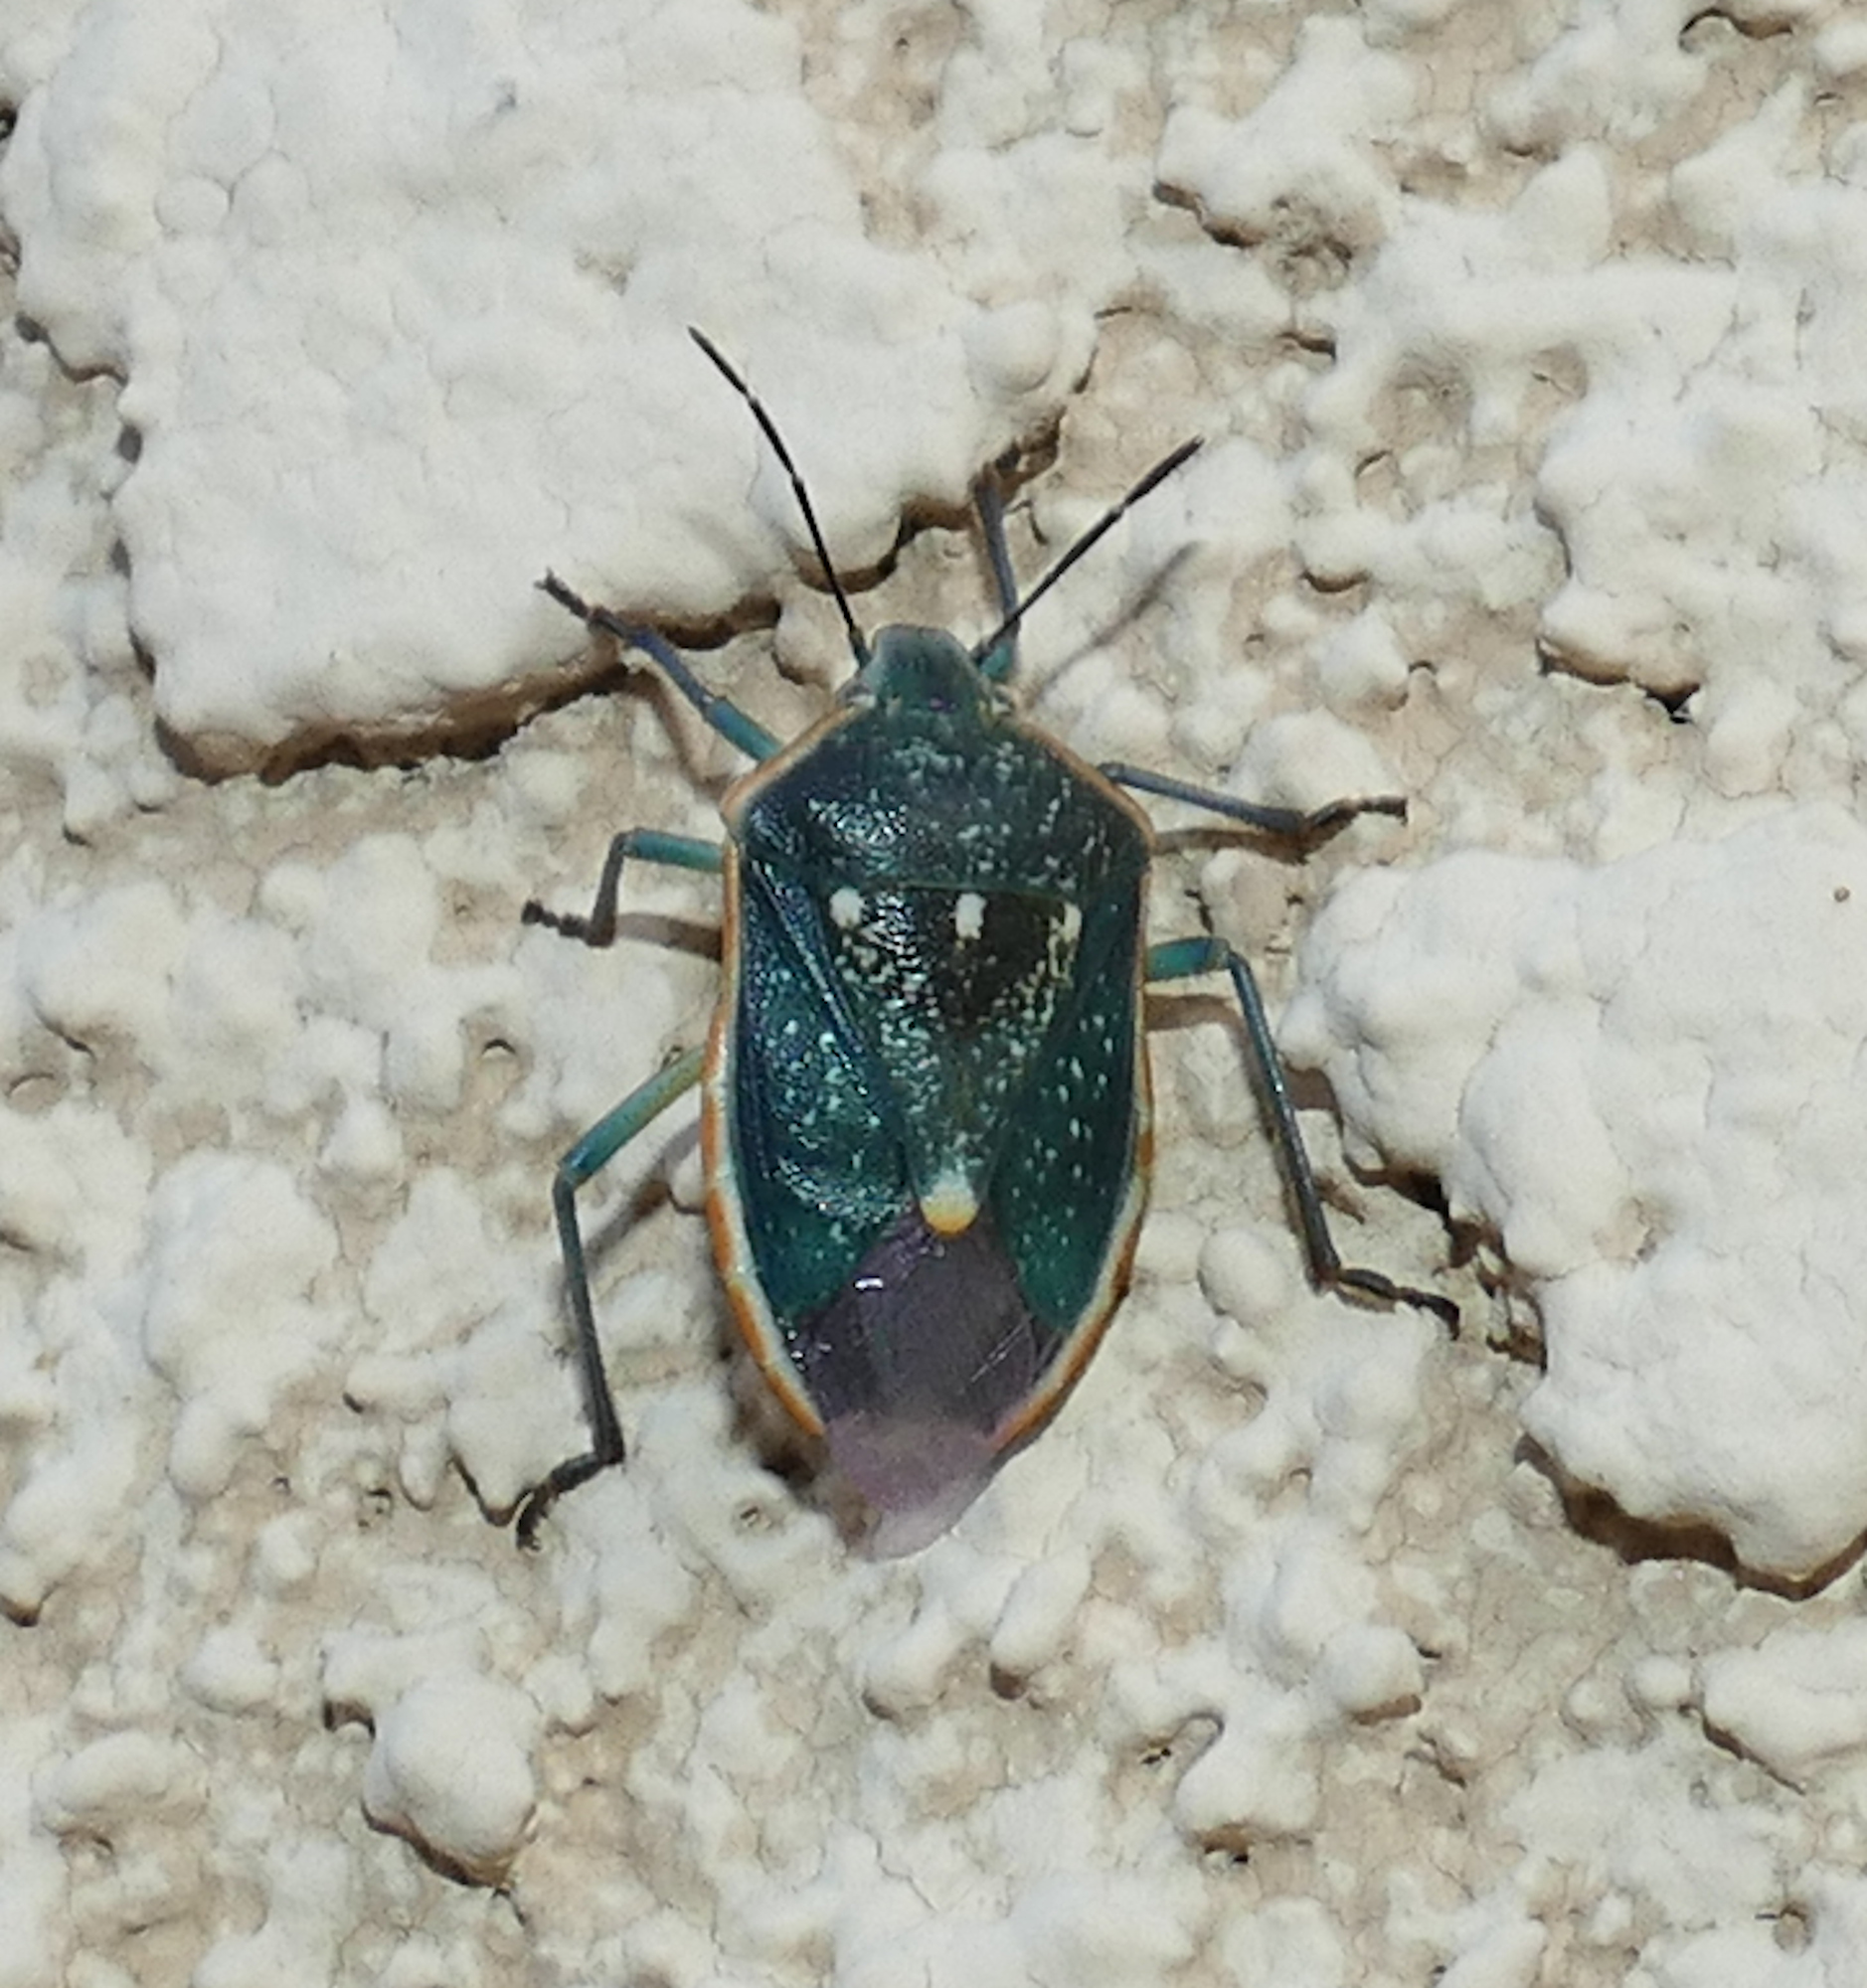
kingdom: Animalia
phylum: Arthropoda
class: Insecta
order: Hemiptera
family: Pentatomidae
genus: Chlorochroa
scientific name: Chlorochroa sayi
